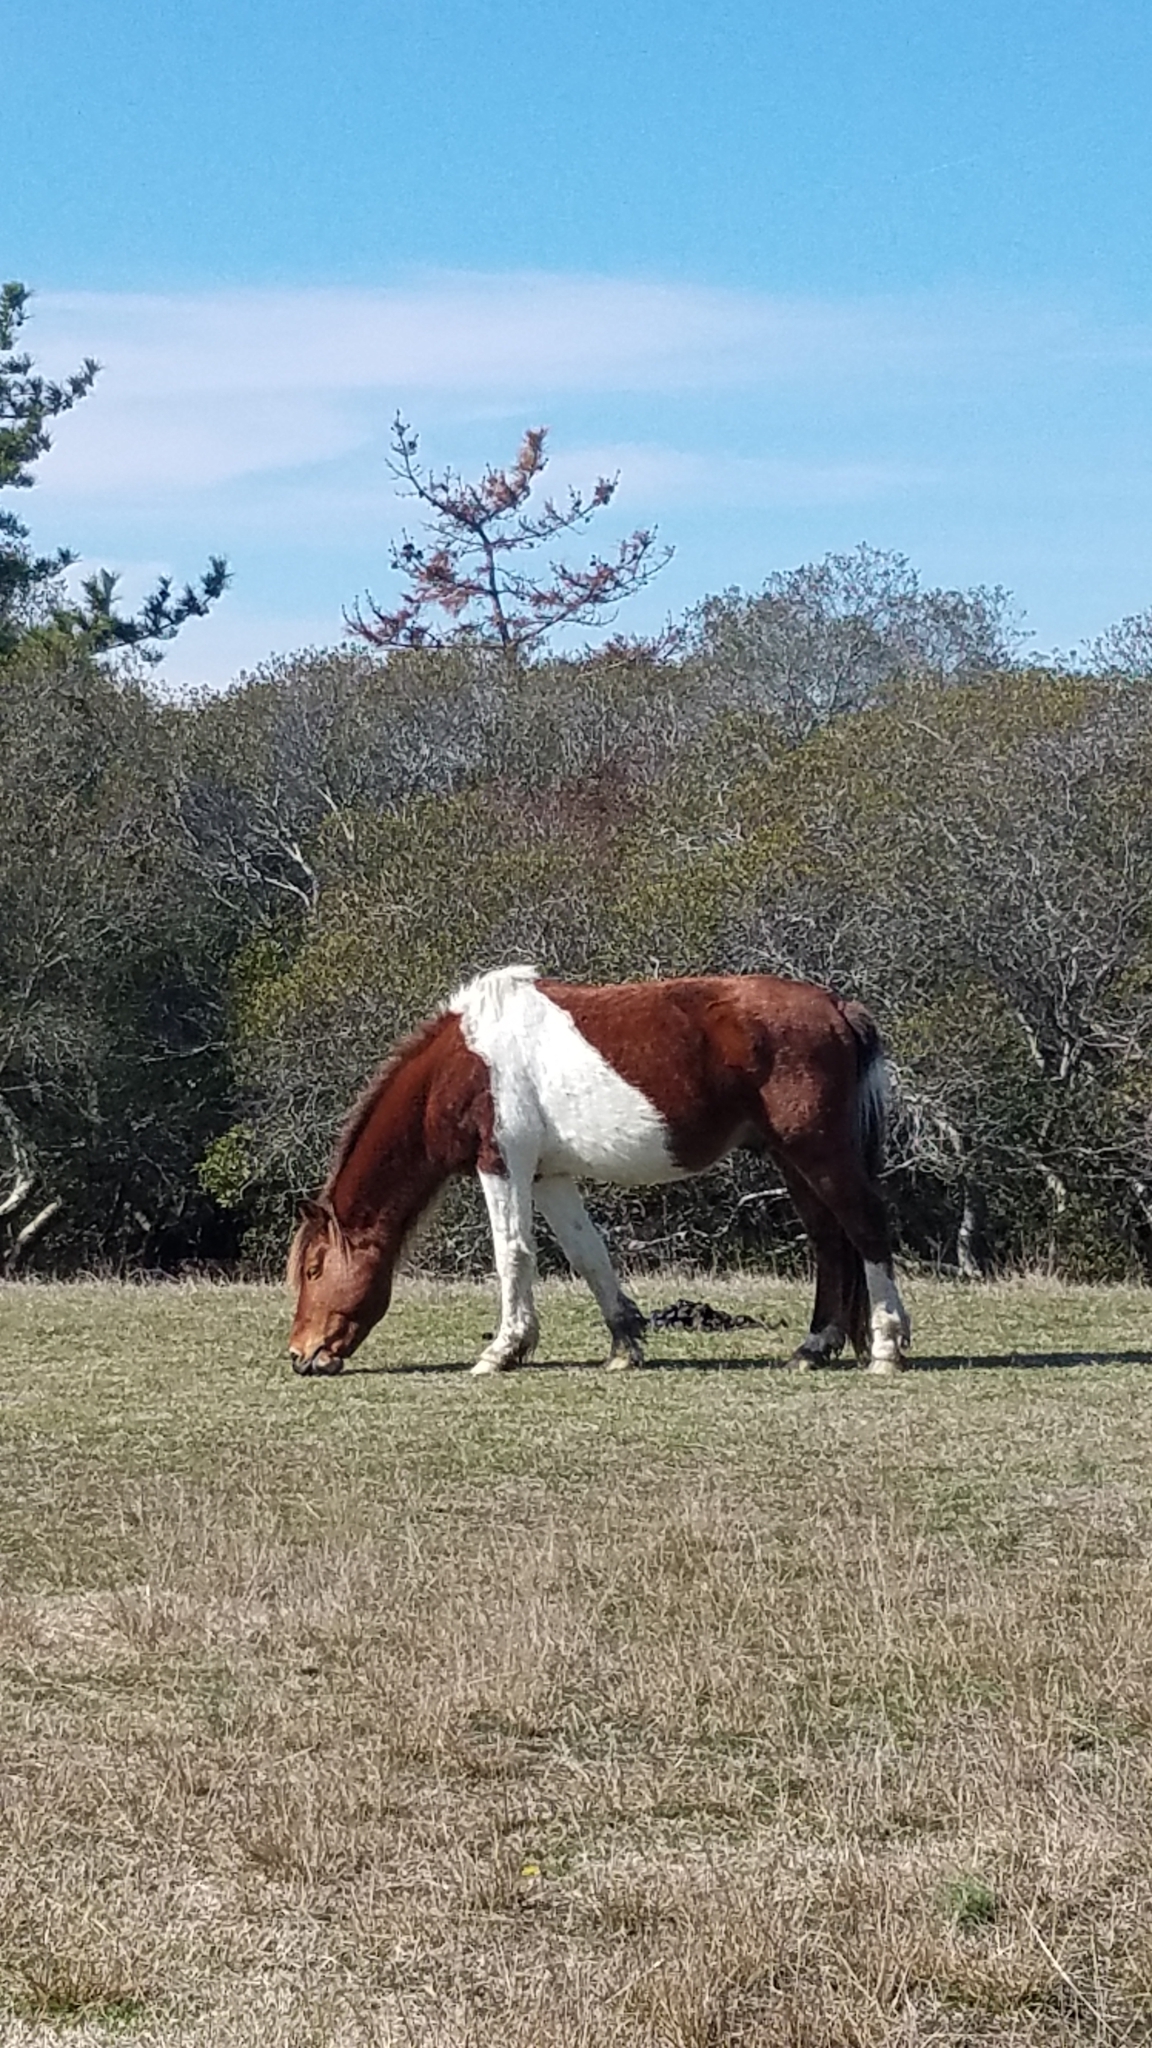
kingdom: Animalia
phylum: Chordata
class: Mammalia
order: Perissodactyla
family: Equidae
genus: Equus
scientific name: Equus caballus
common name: Horse
